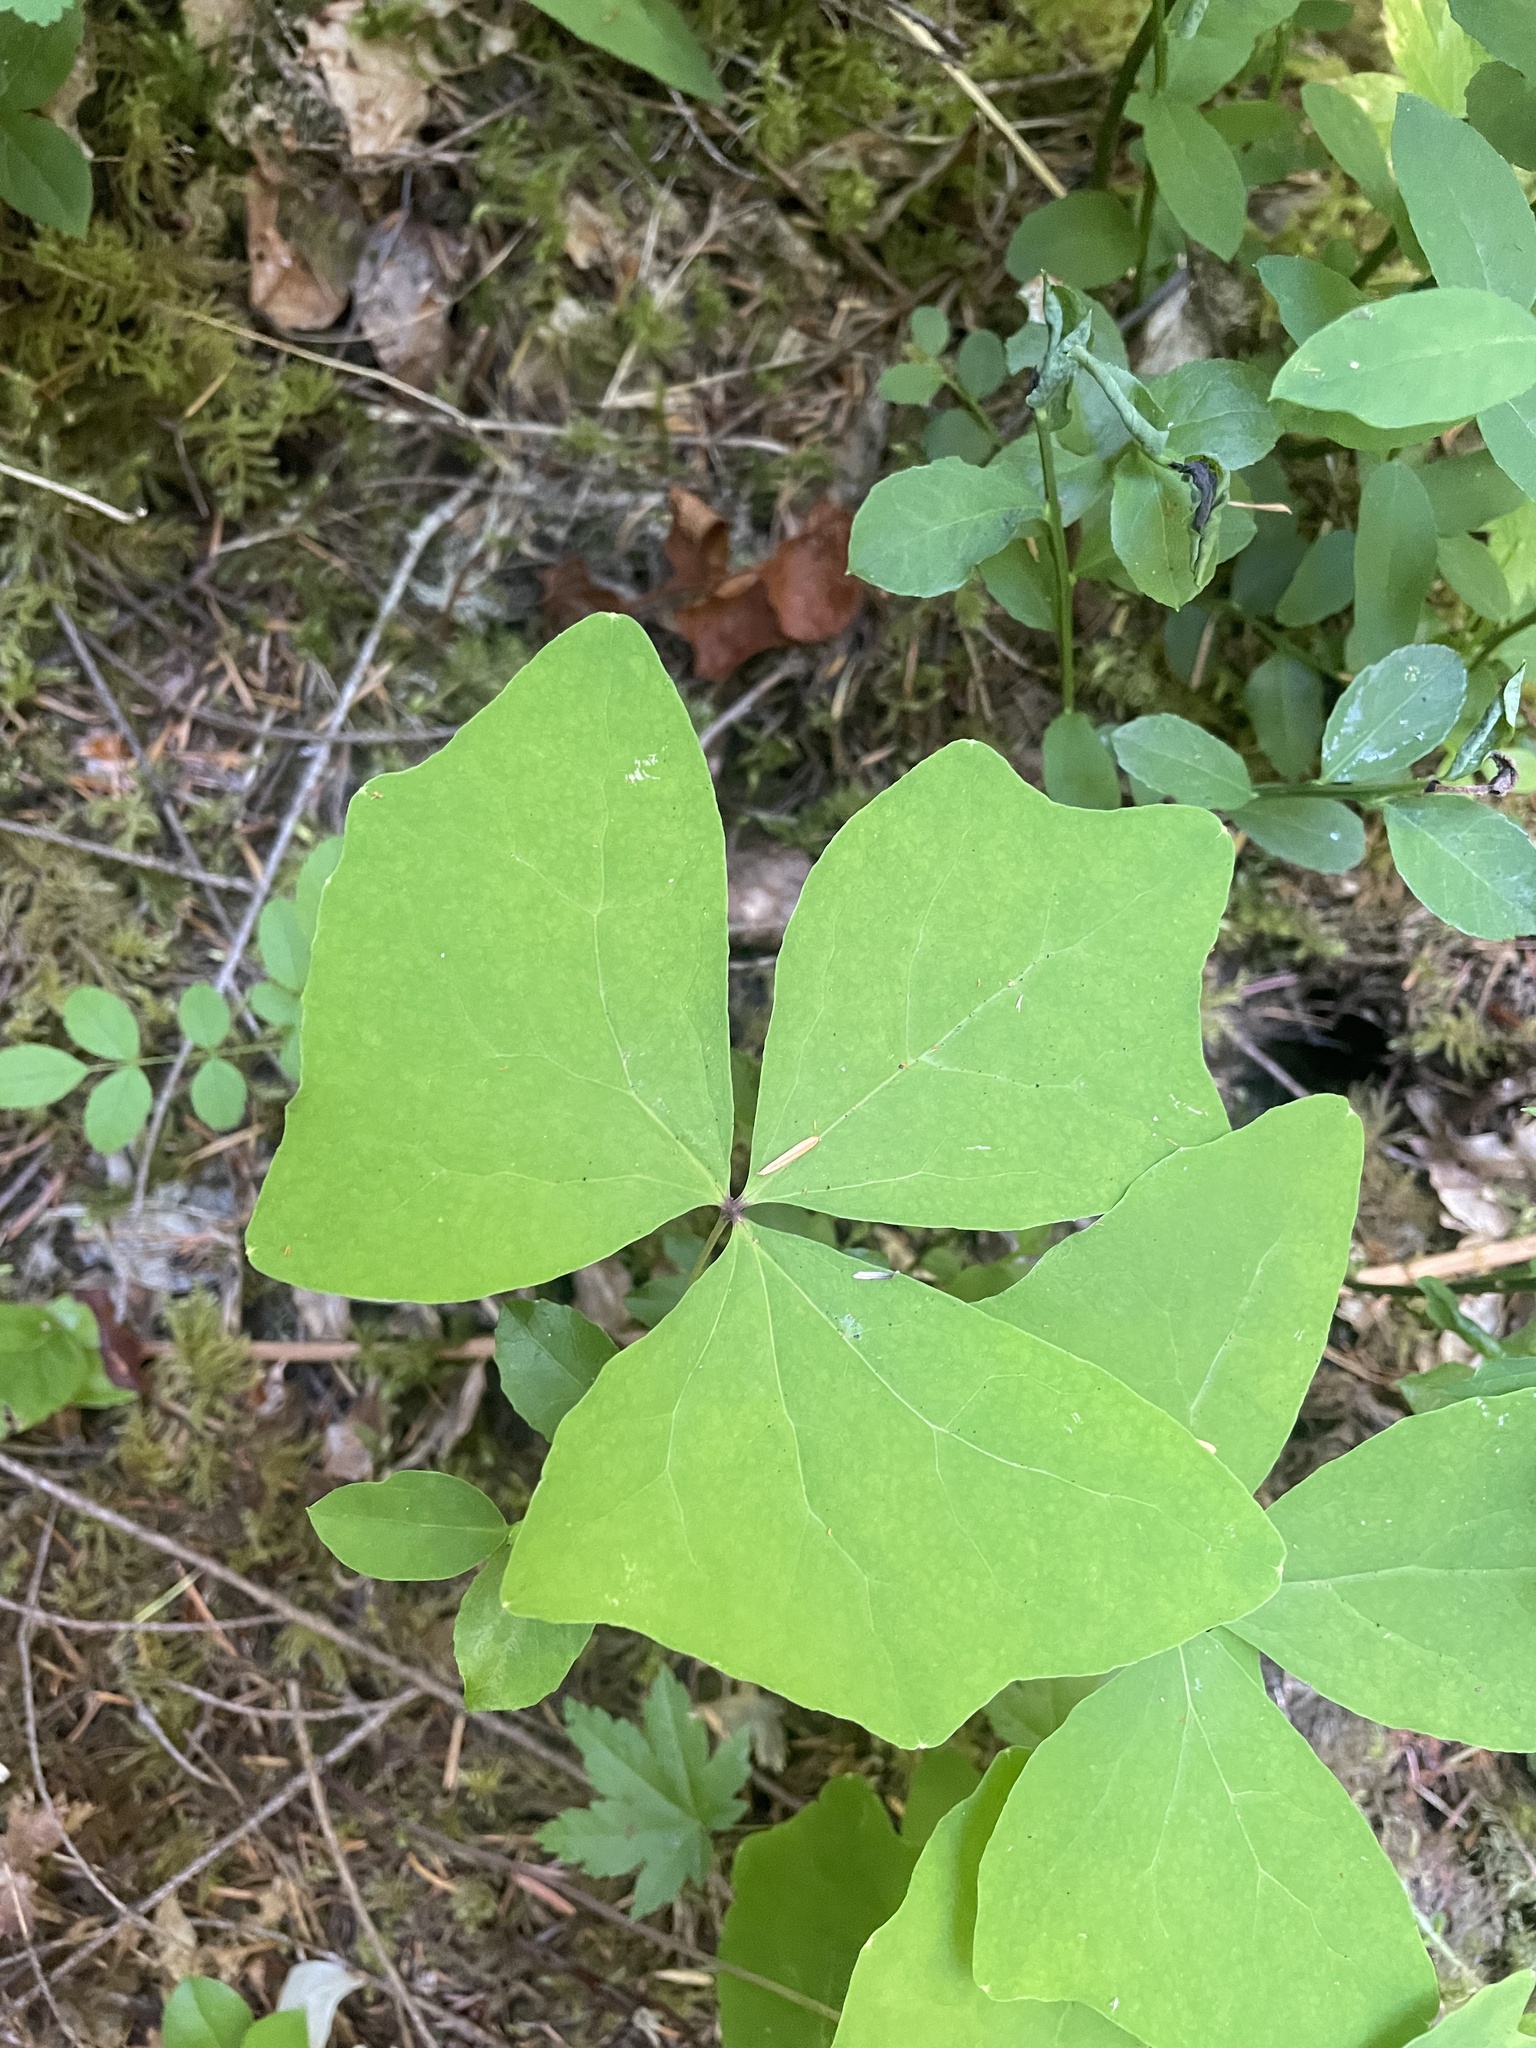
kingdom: Plantae
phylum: Tracheophyta
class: Magnoliopsida
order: Ranunculales
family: Berberidaceae
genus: Achlys
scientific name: Achlys triphylla
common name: Vanilla-leaf
